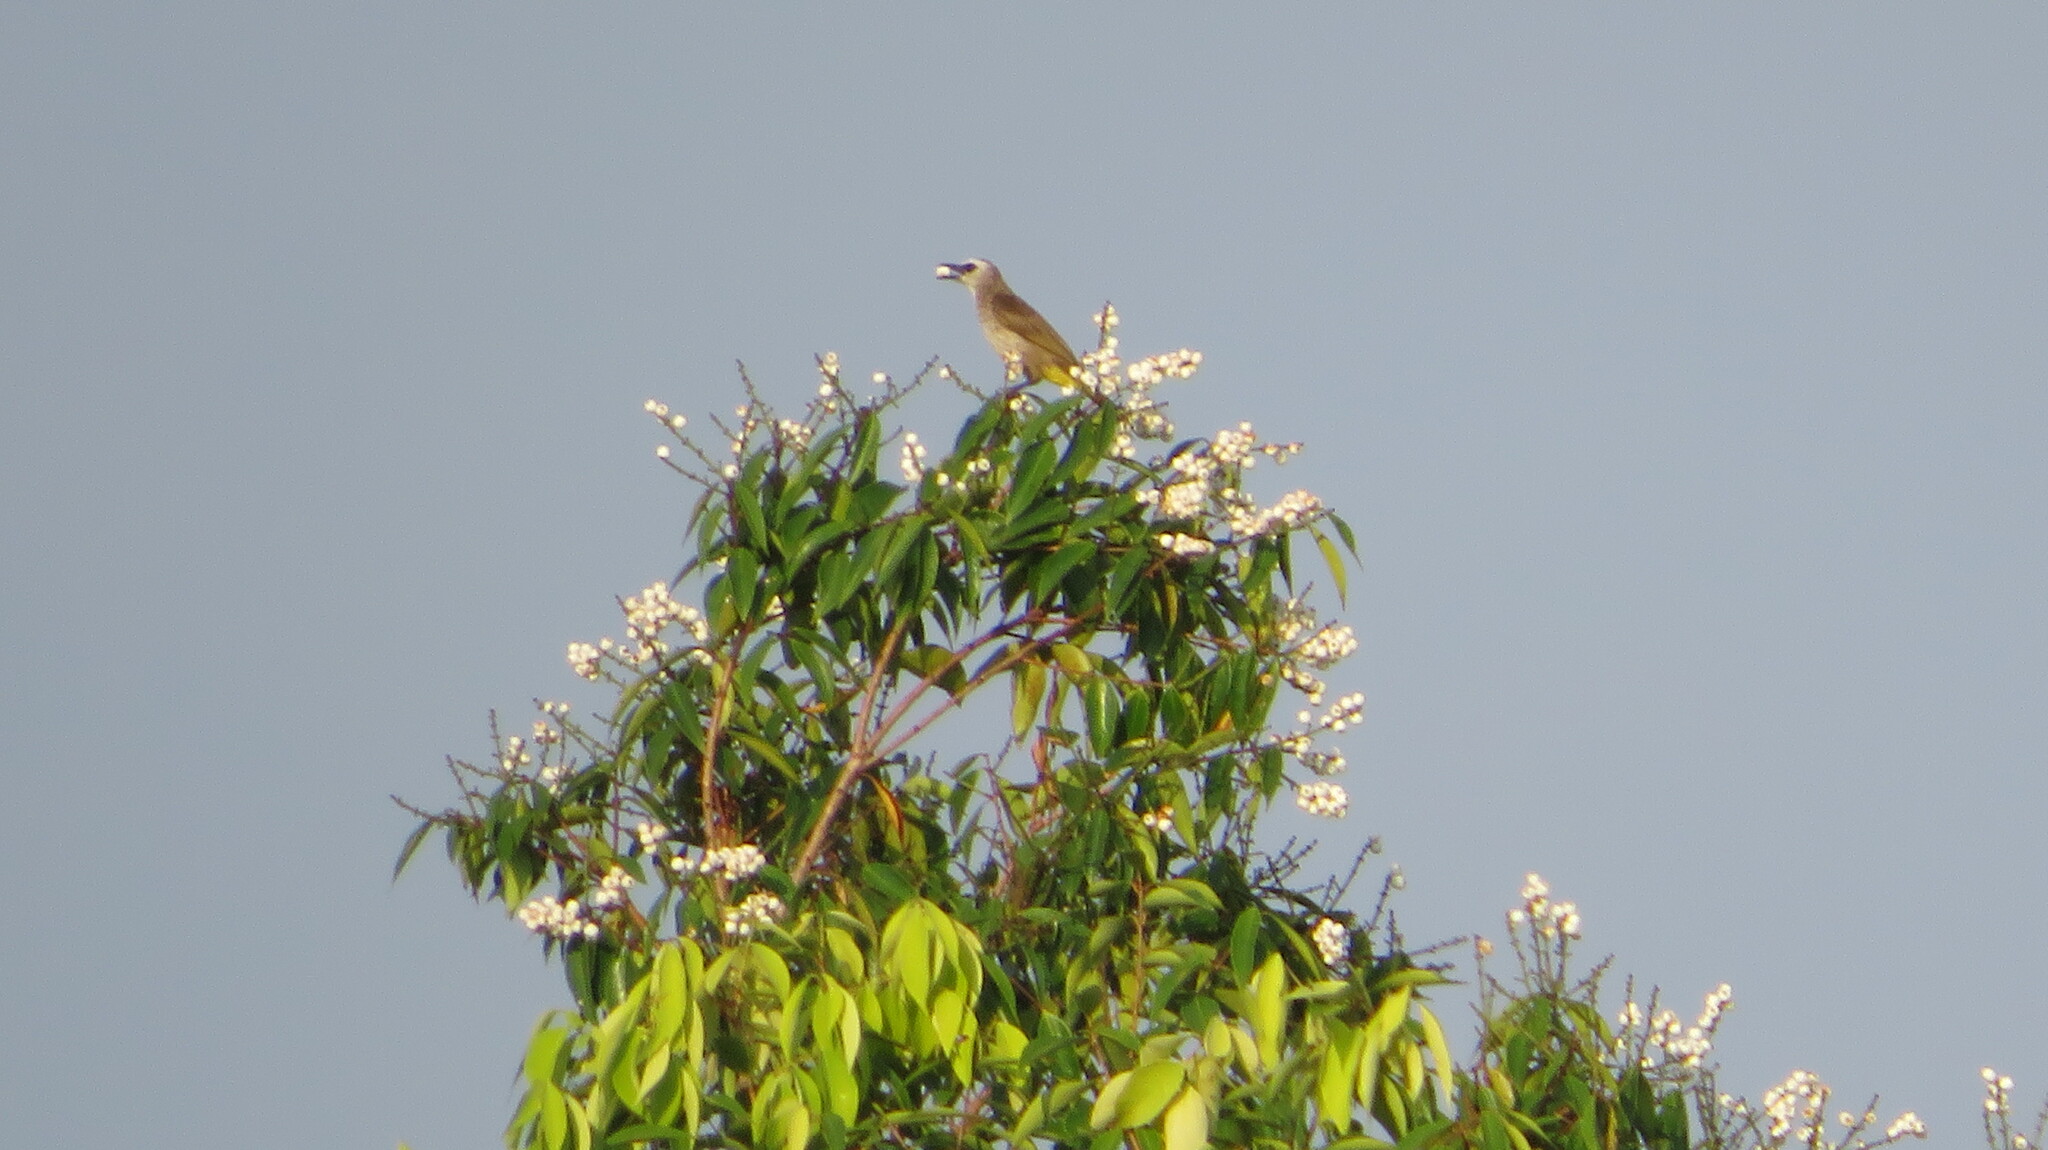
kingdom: Animalia
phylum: Chordata
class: Aves
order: Passeriformes
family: Pycnonotidae
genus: Pycnonotus
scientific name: Pycnonotus goiavier
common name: Yellow-vented bulbul
